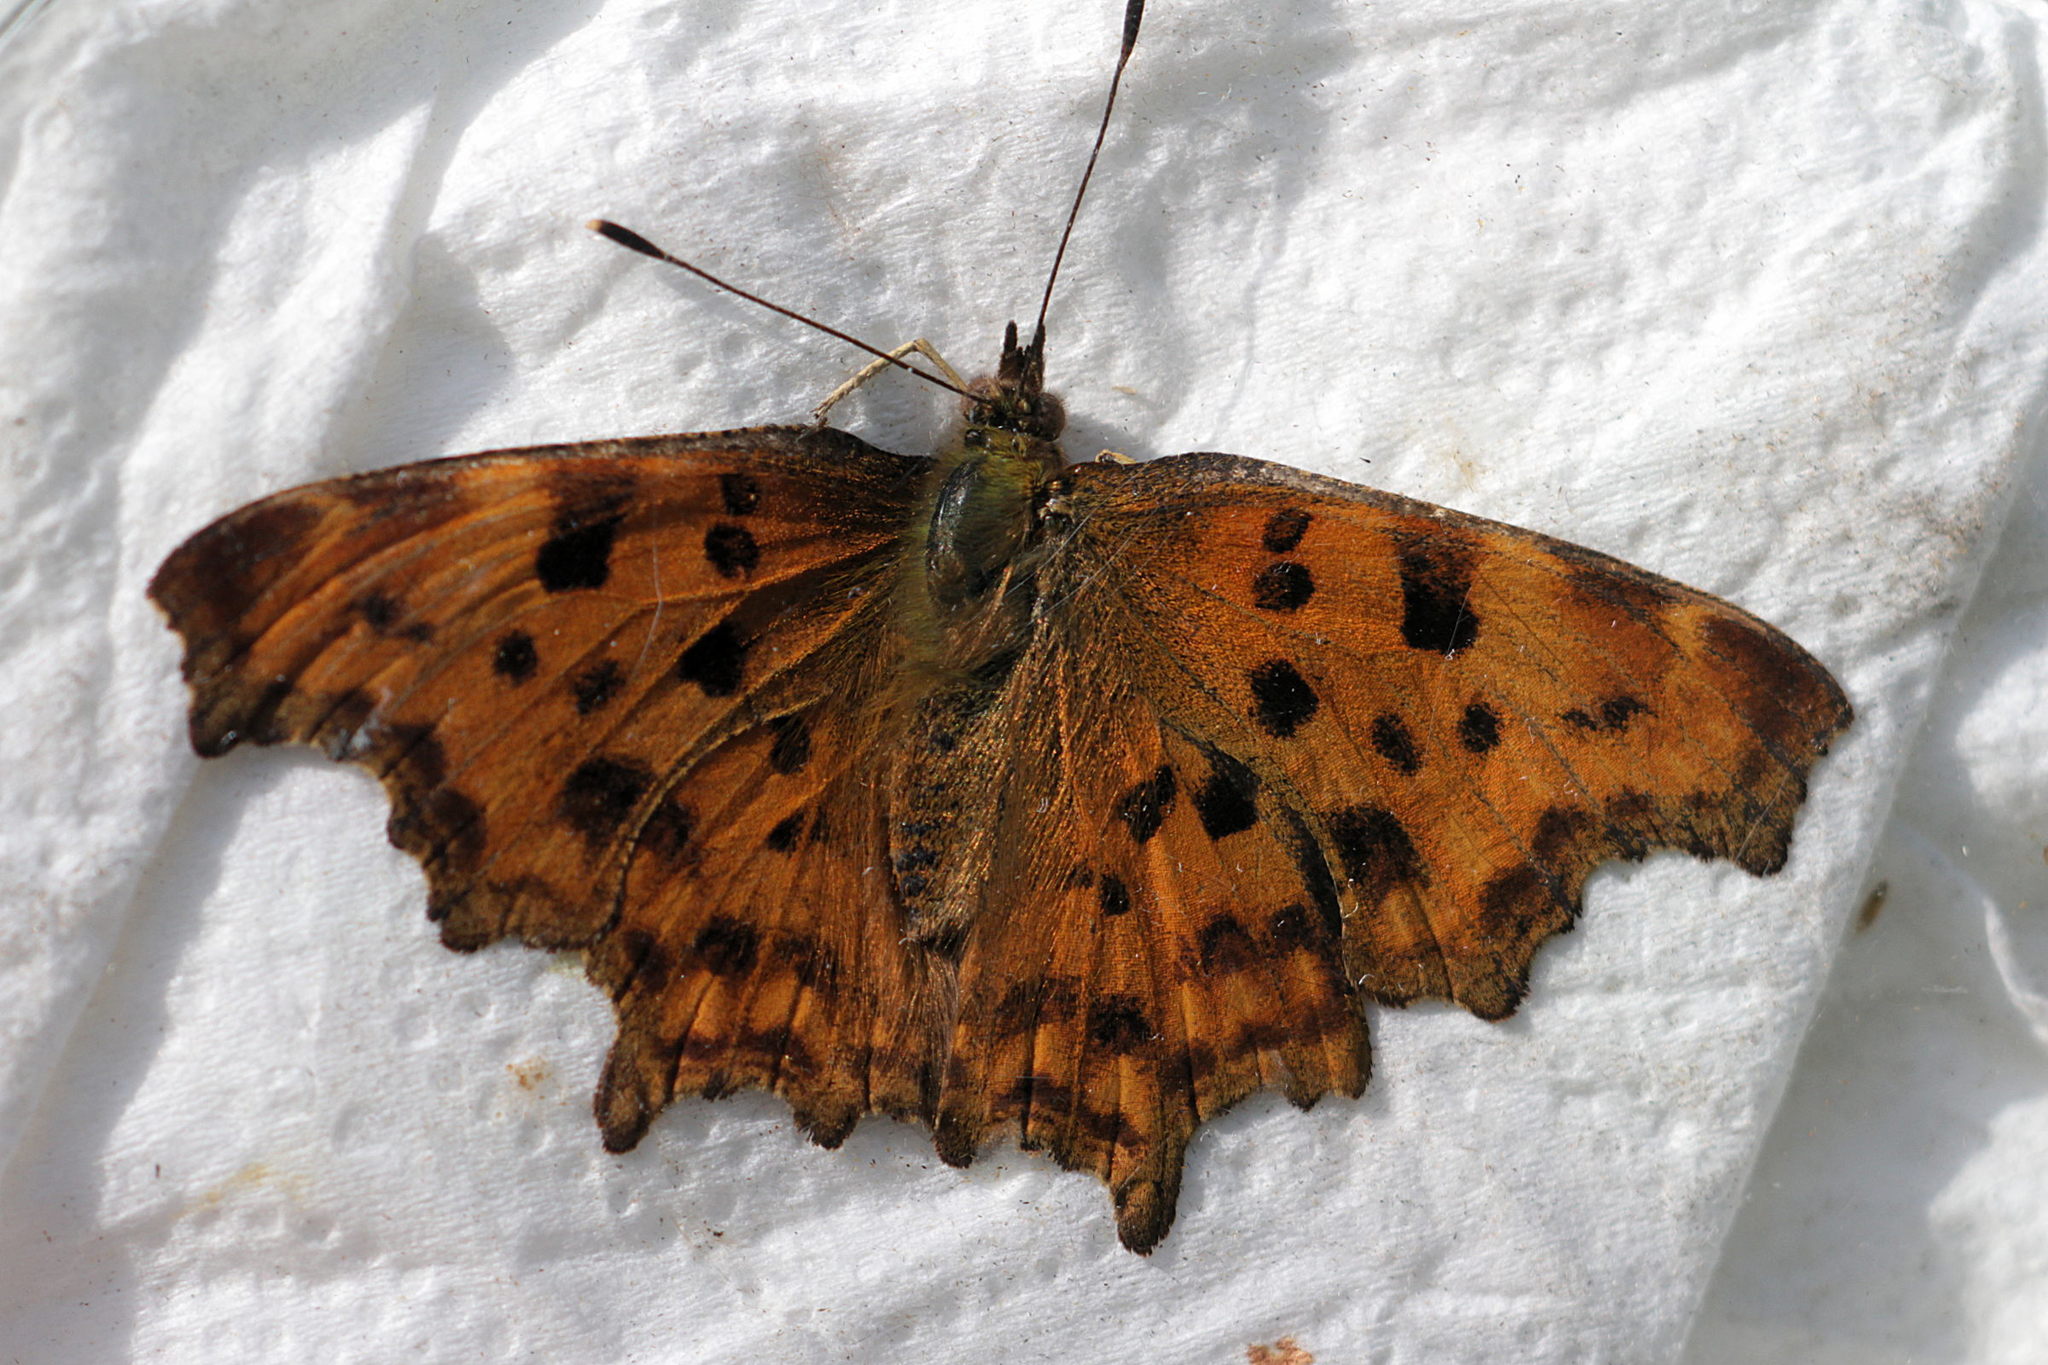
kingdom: Animalia
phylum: Arthropoda
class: Insecta
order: Lepidoptera
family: Nymphalidae
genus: Polygonia
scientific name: Polygonia c-album
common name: Comma
